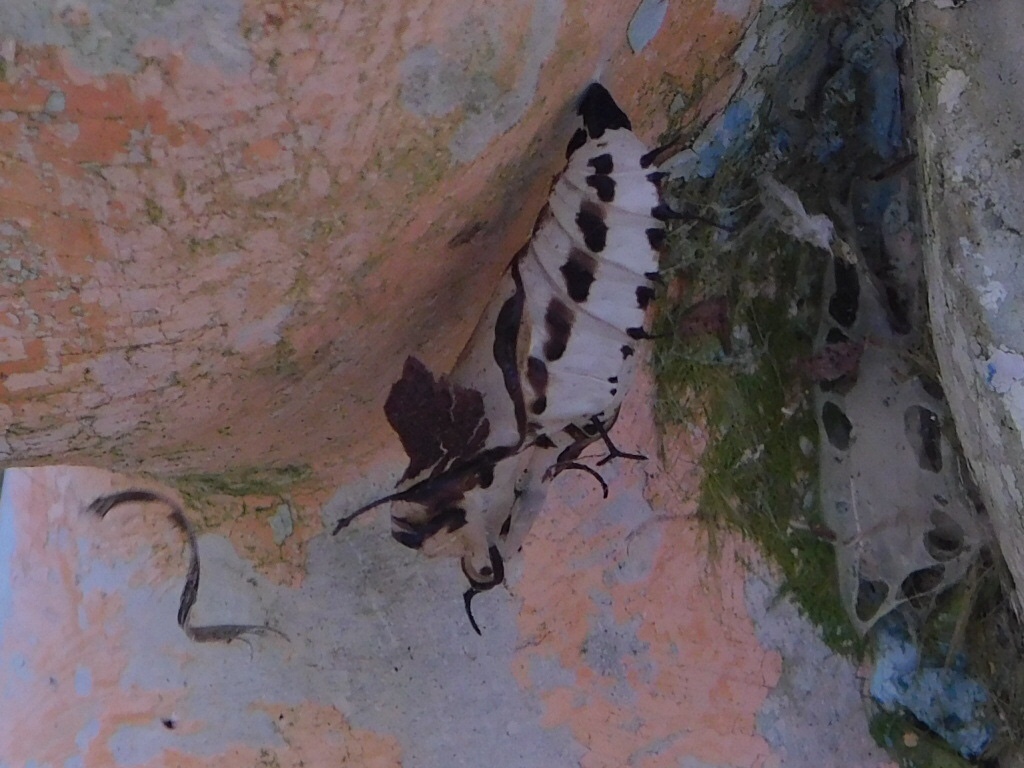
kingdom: Animalia
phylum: Arthropoda
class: Insecta
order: Lepidoptera
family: Nymphalidae
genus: Marpesia
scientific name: Marpesia petreus
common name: Red dagger wing
